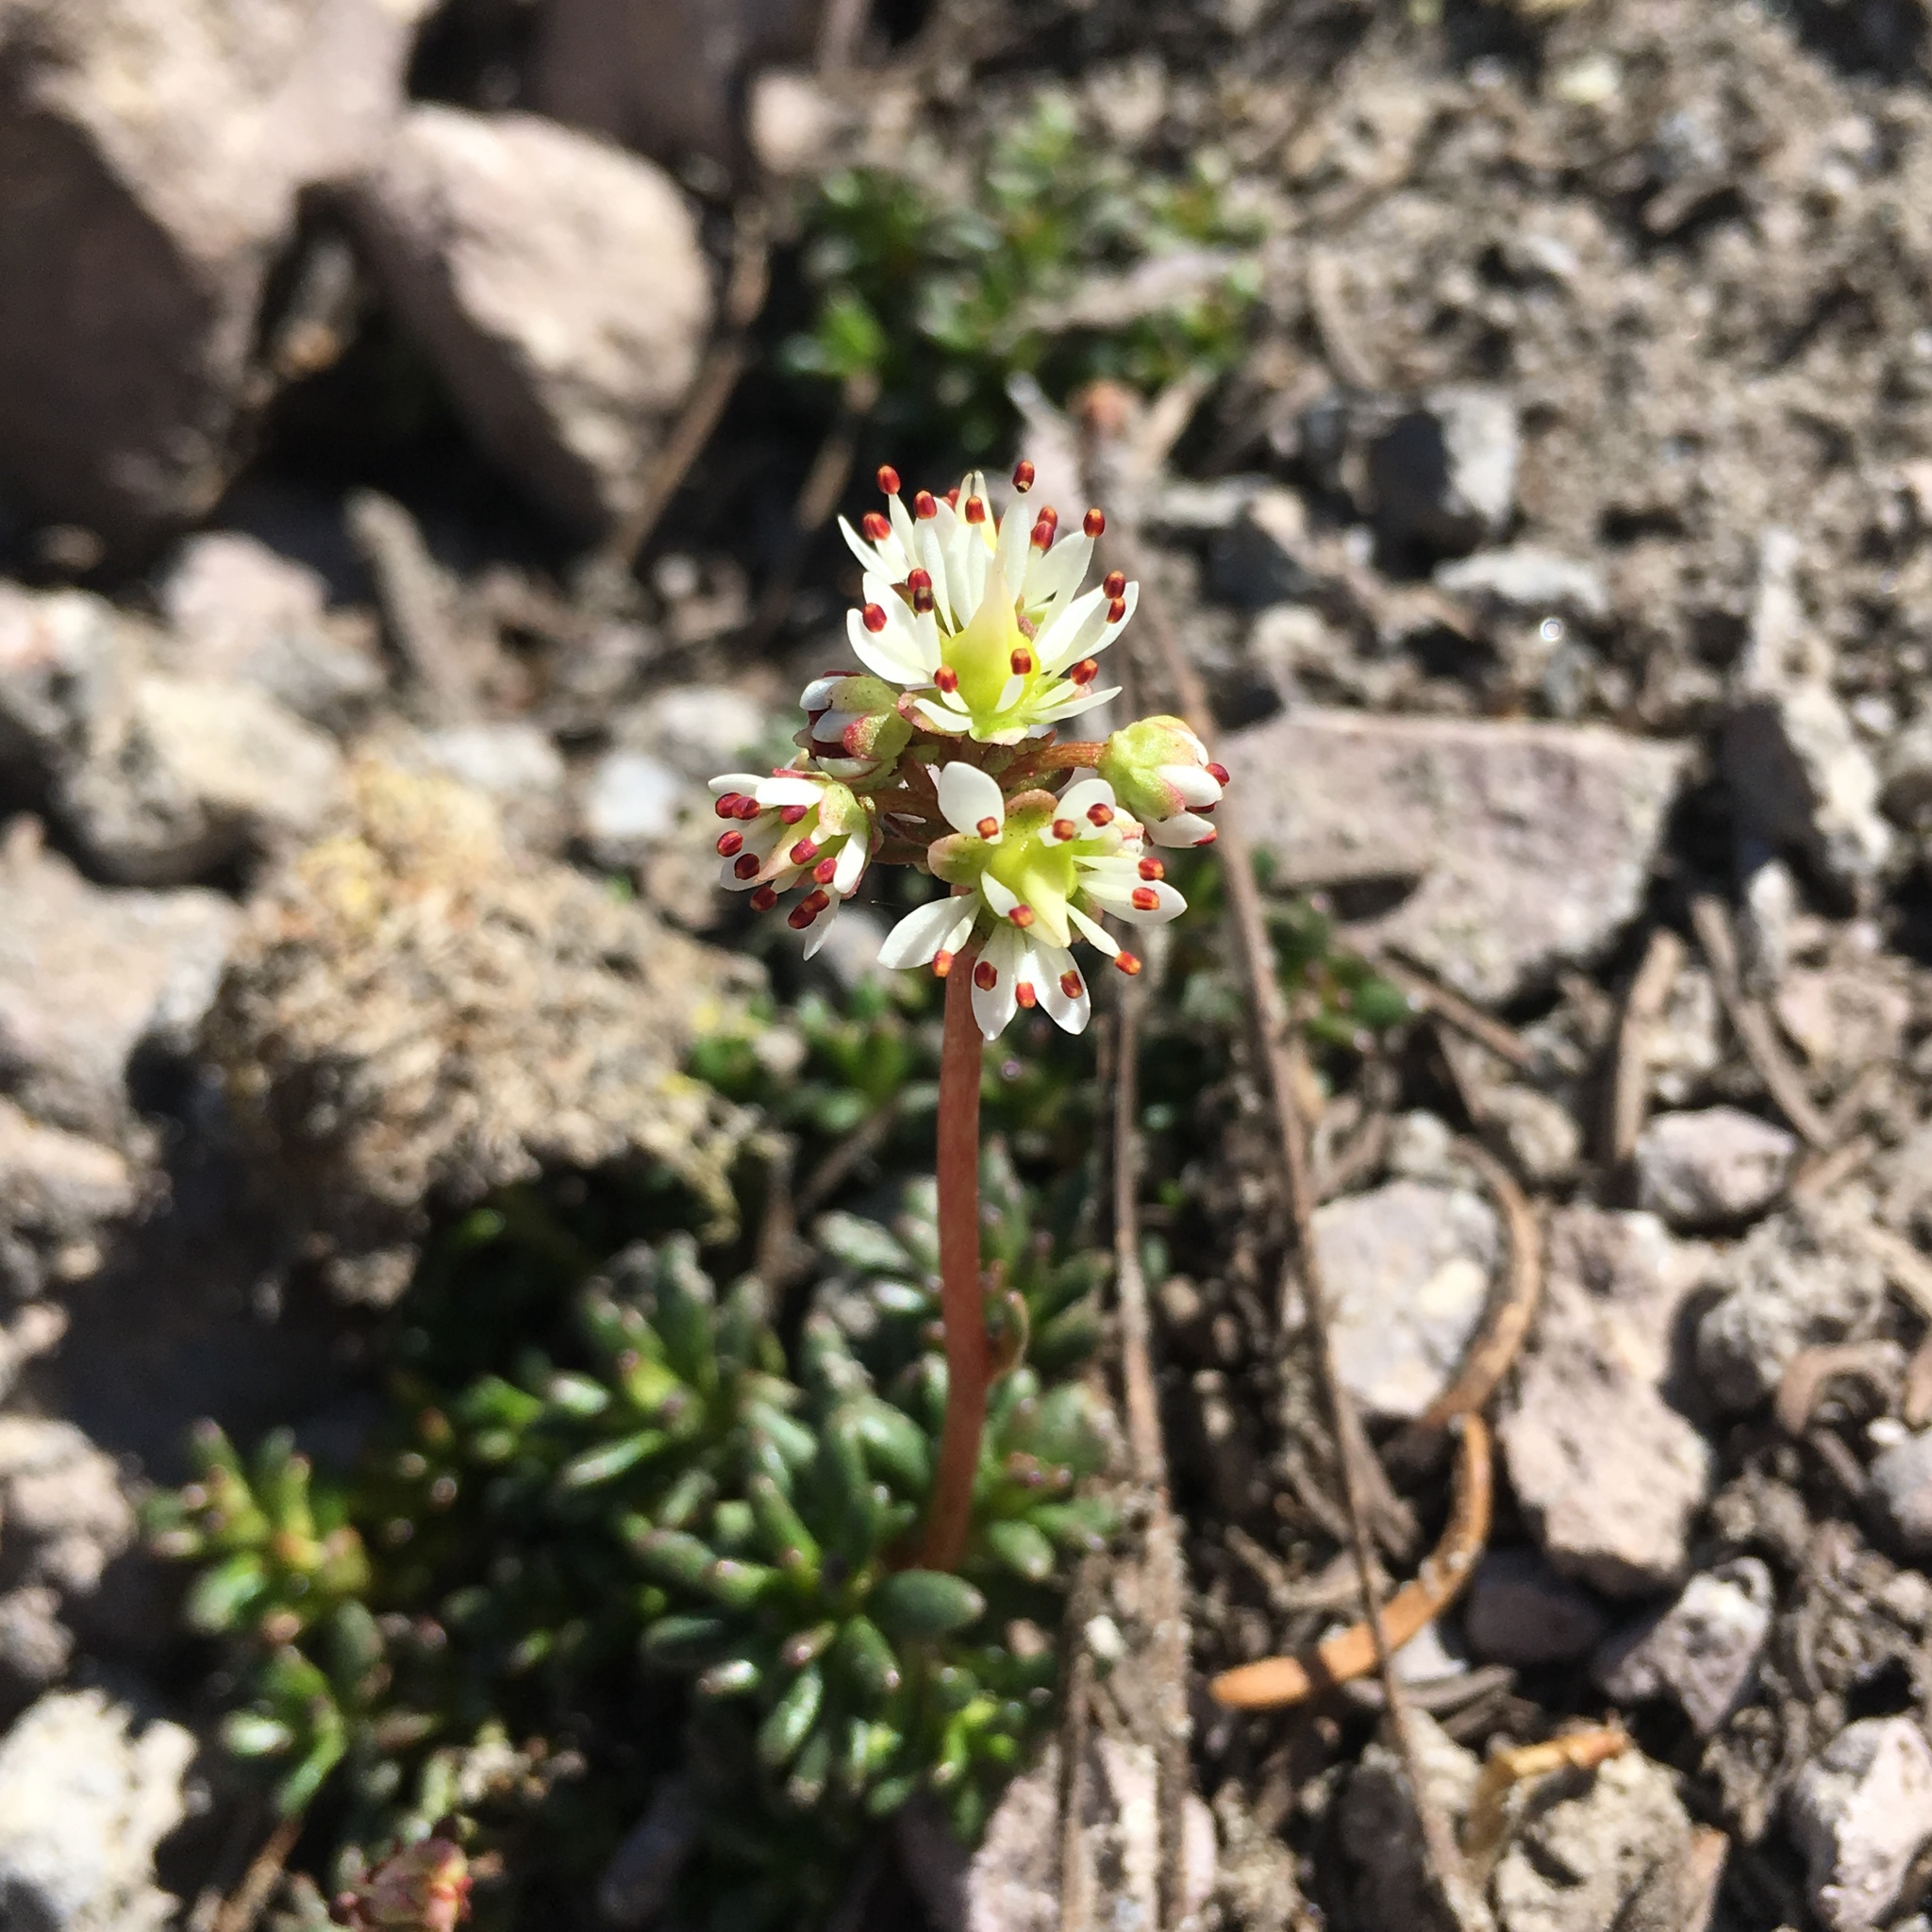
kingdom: Plantae
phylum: Tracheophyta
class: Magnoliopsida
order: Saxifragales
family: Saxifragaceae
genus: Micranthes
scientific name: Micranthes tolmiei
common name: Tolmie's saxifrage
